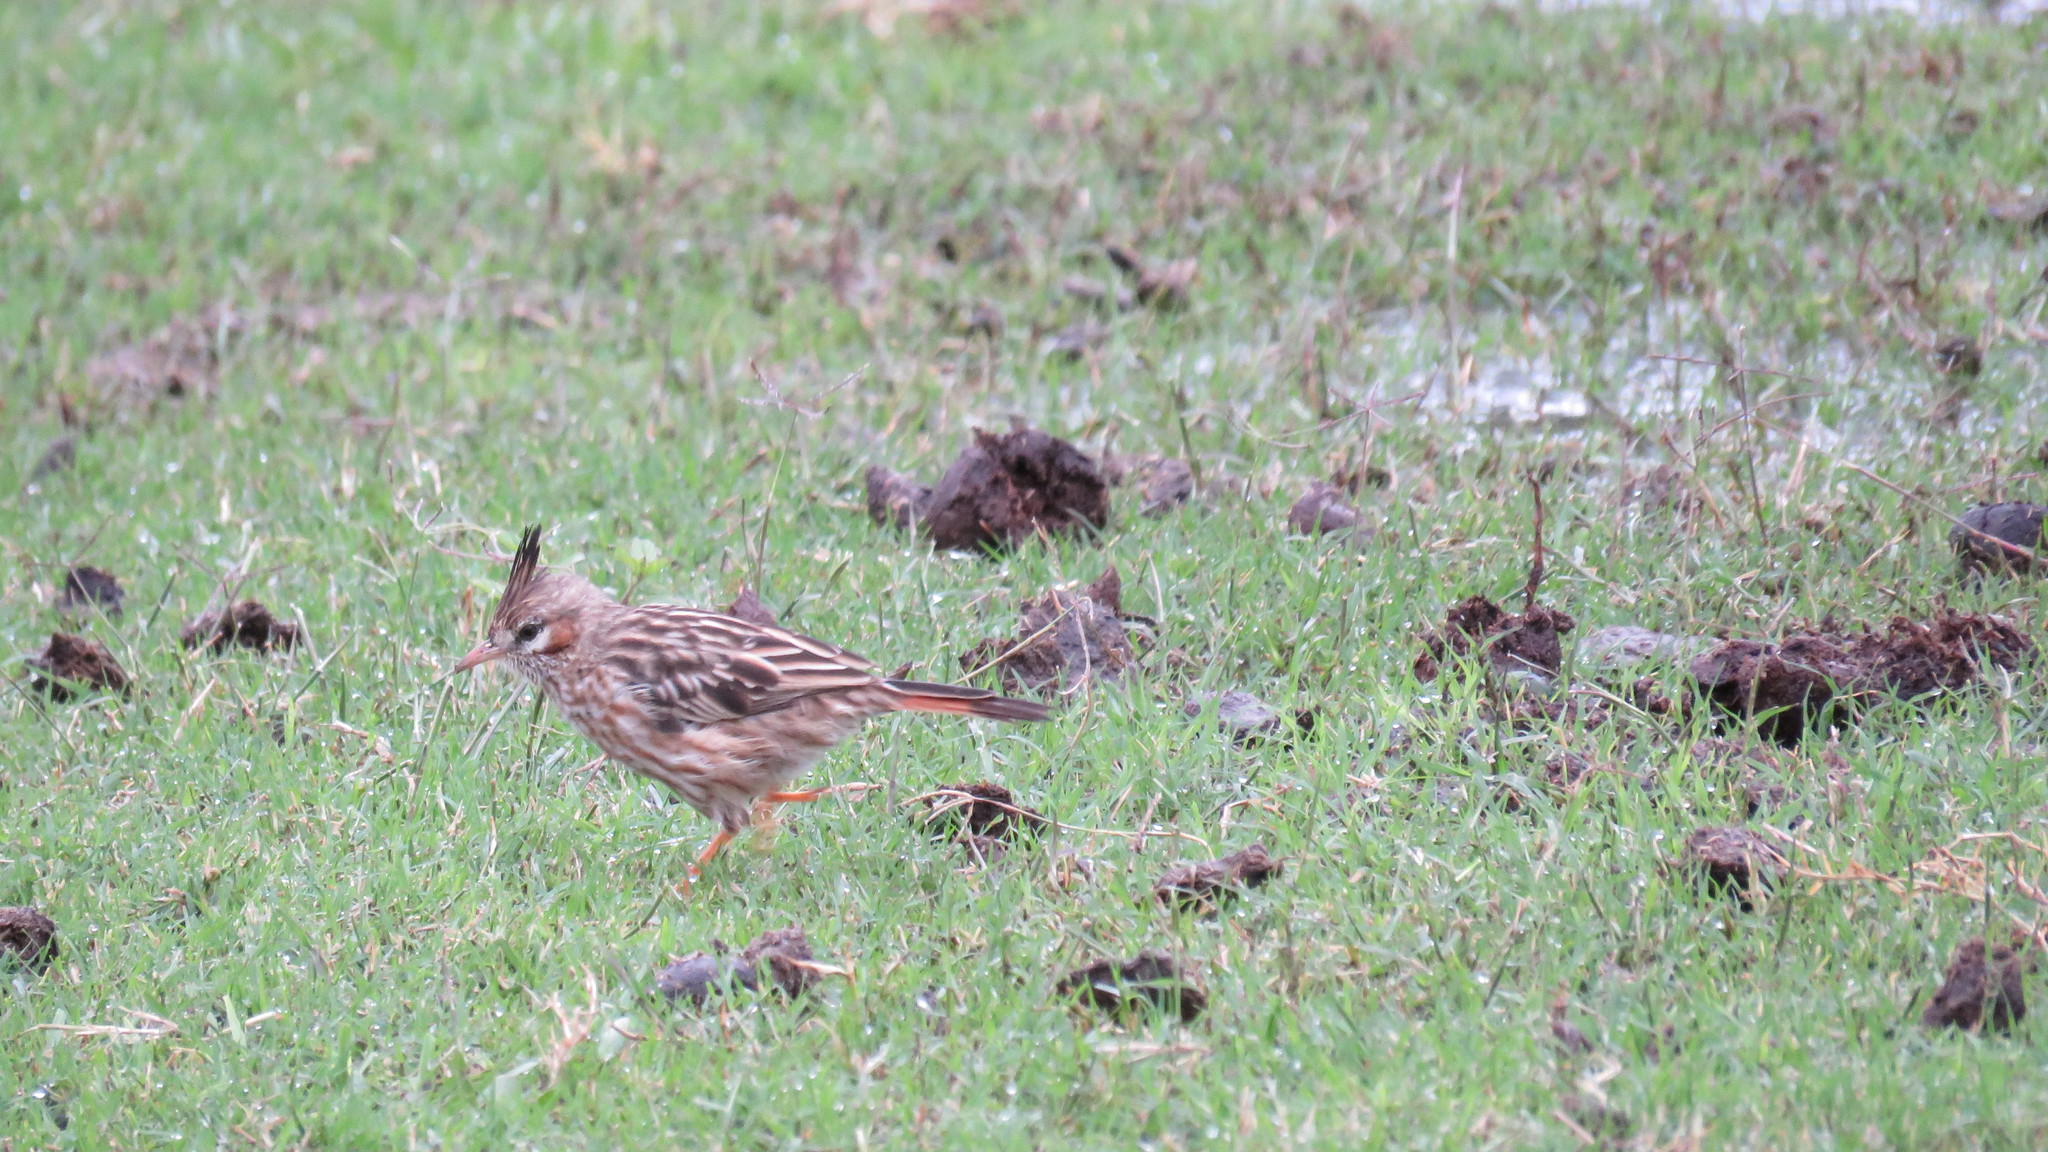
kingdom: Animalia
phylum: Chordata
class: Aves
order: Passeriformes
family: Furnariidae
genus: Coryphistera
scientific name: Coryphistera alaudina
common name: Lark-like brushrunner
